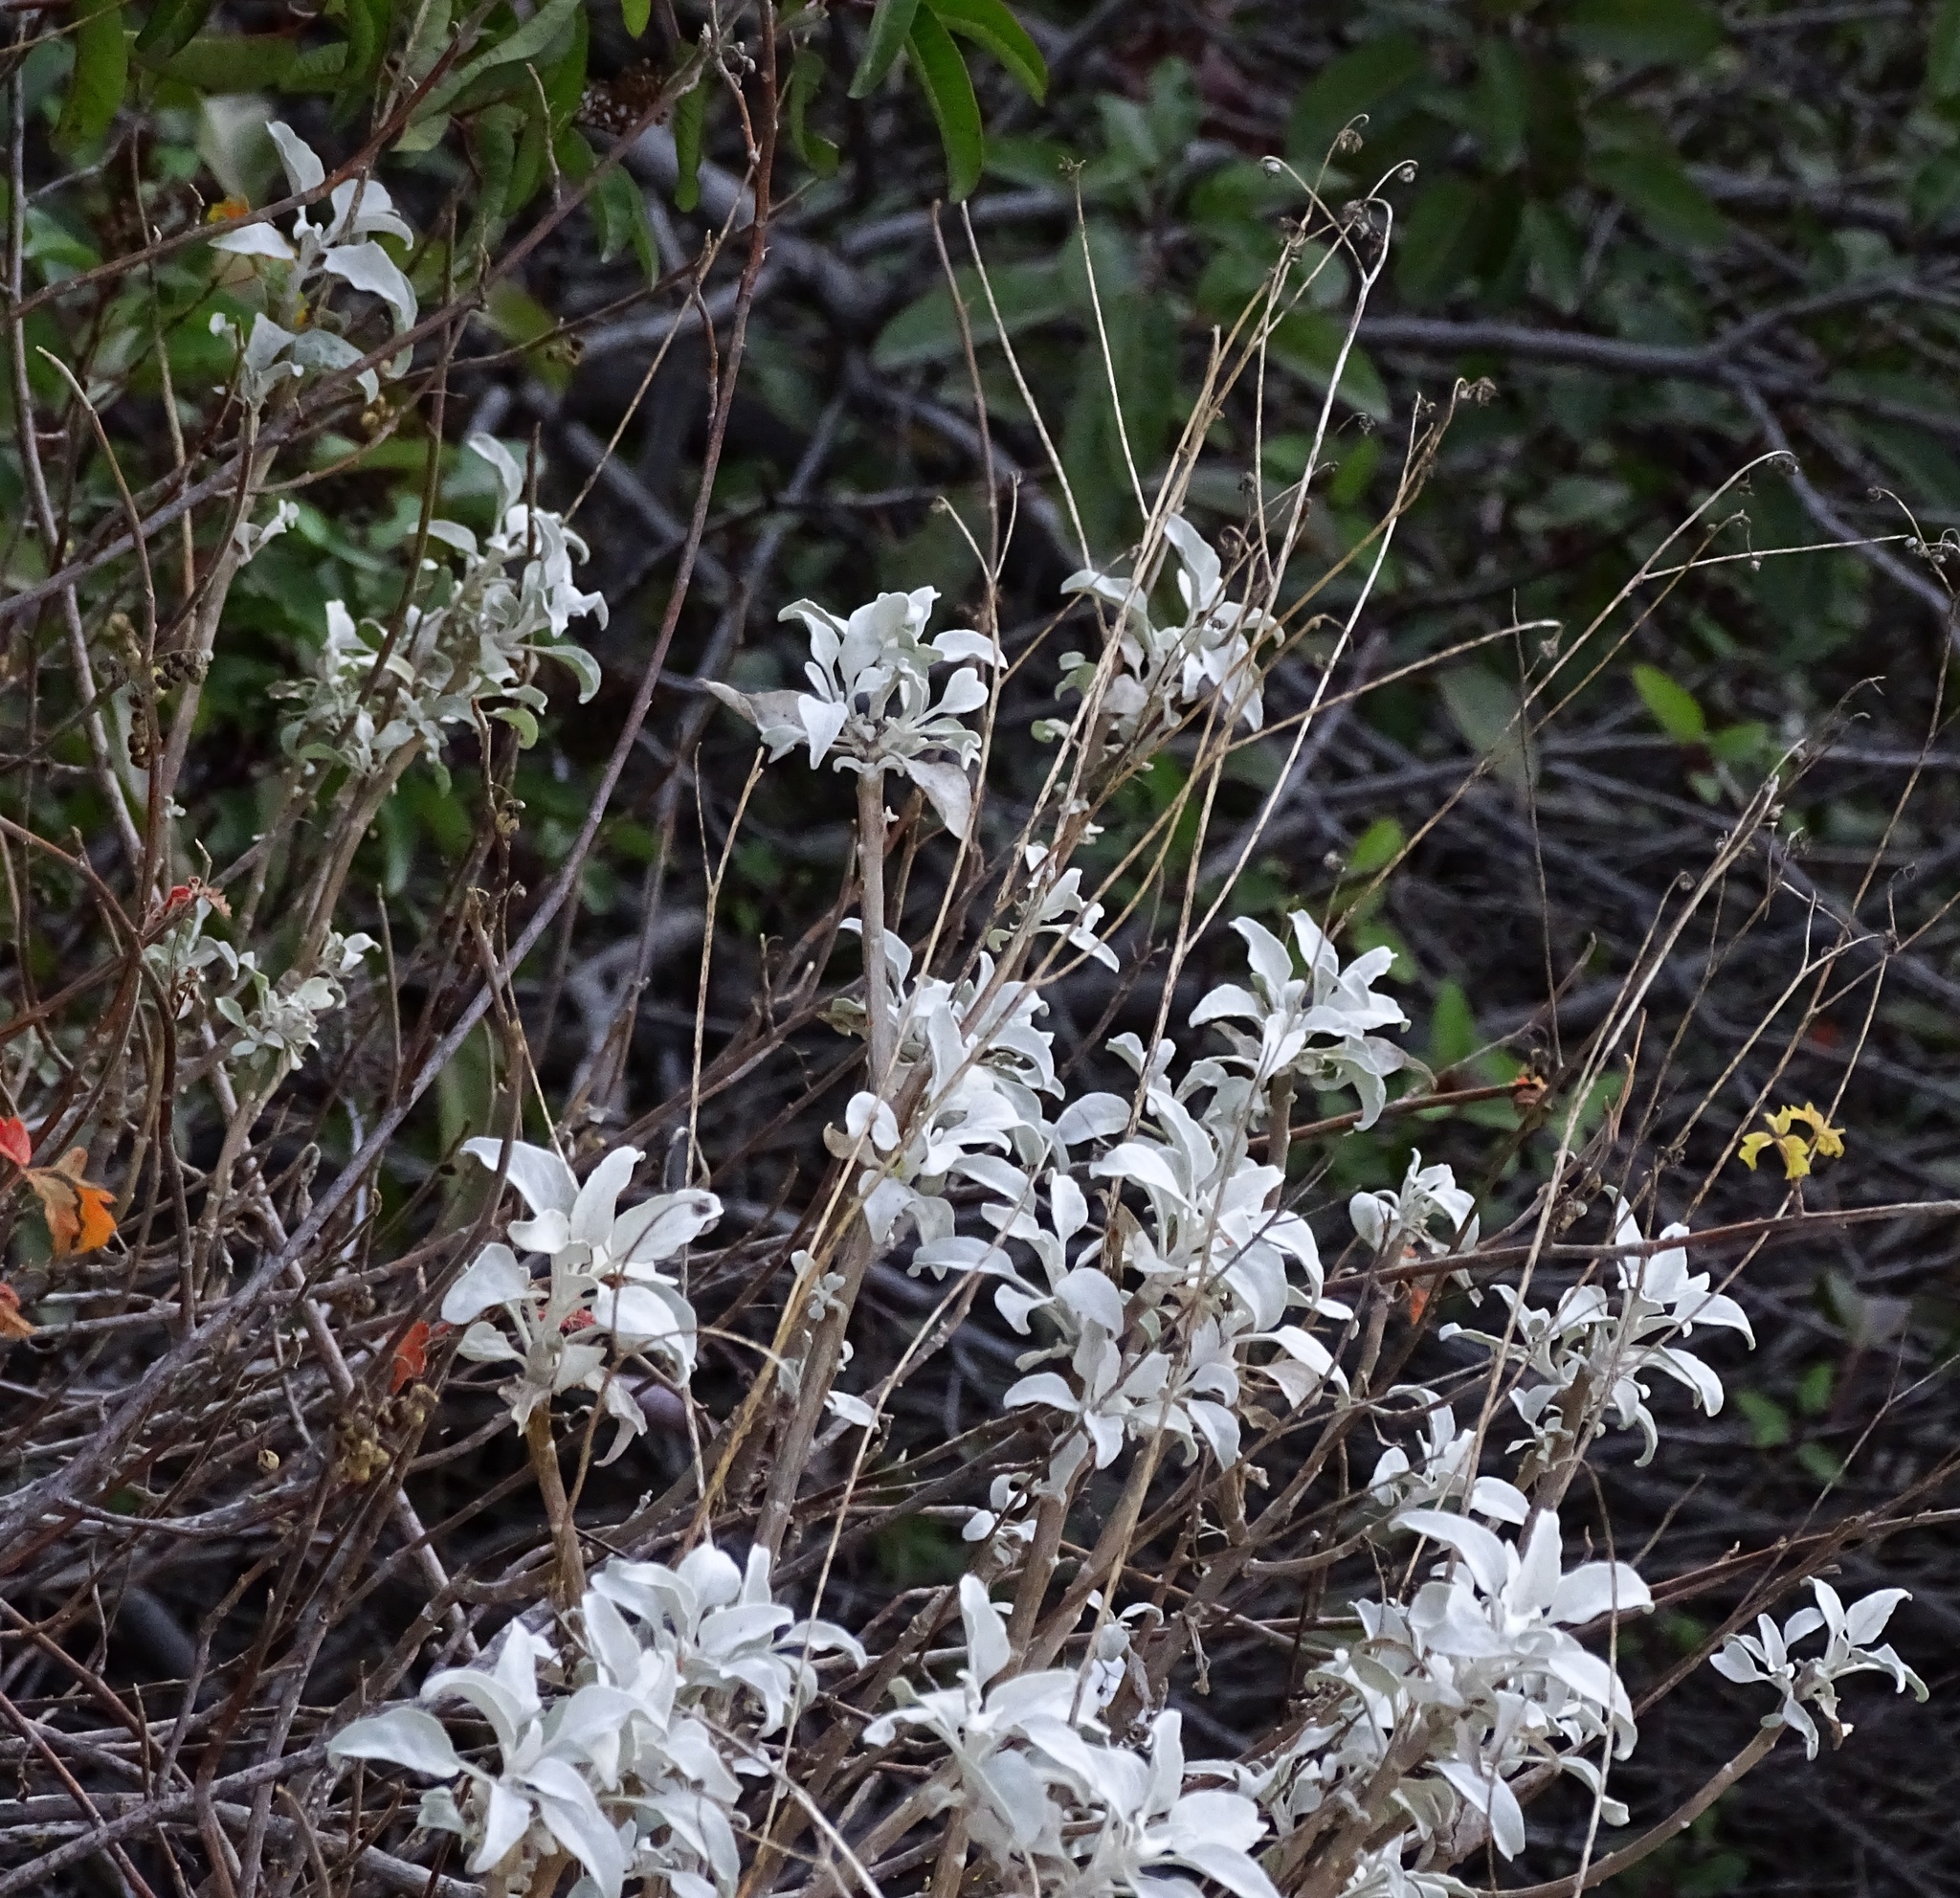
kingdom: Plantae
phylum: Tracheophyta
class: Magnoliopsida
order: Asterales
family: Asteraceae
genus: Encelia
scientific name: Encelia farinosa
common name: Brittlebush
